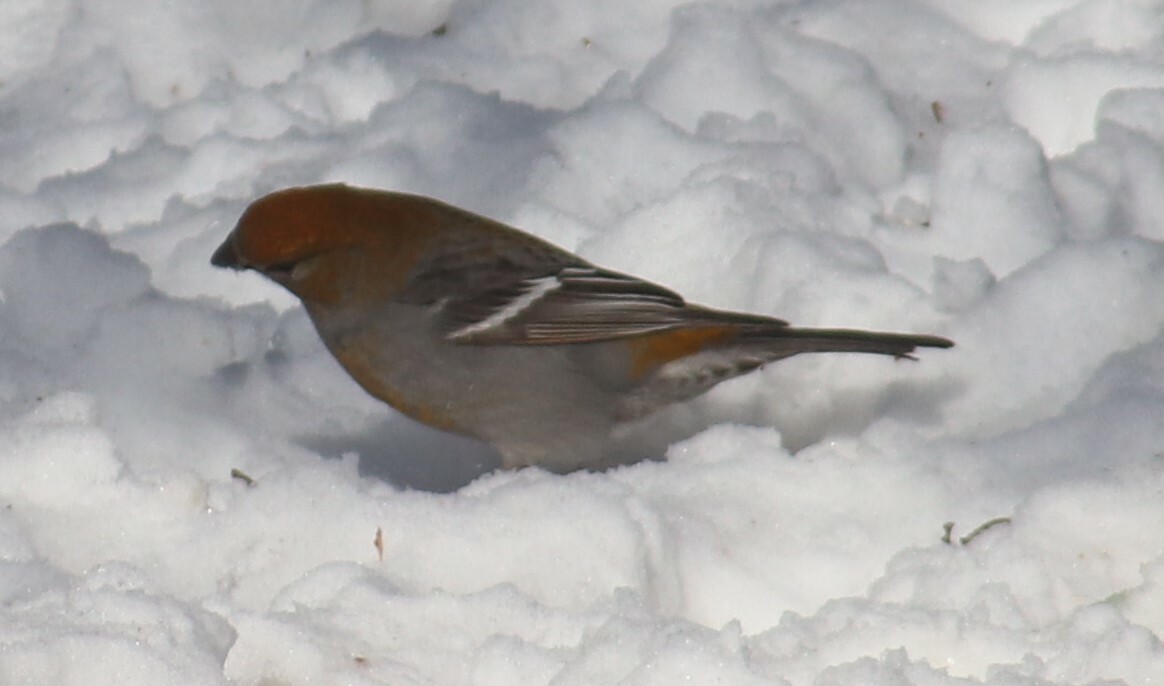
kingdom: Animalia
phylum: Chordata
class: Aves
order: Passeriformes
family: Fringillidae
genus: Pinicola
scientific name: Pinicola enucleator
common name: Pine grosbeak
